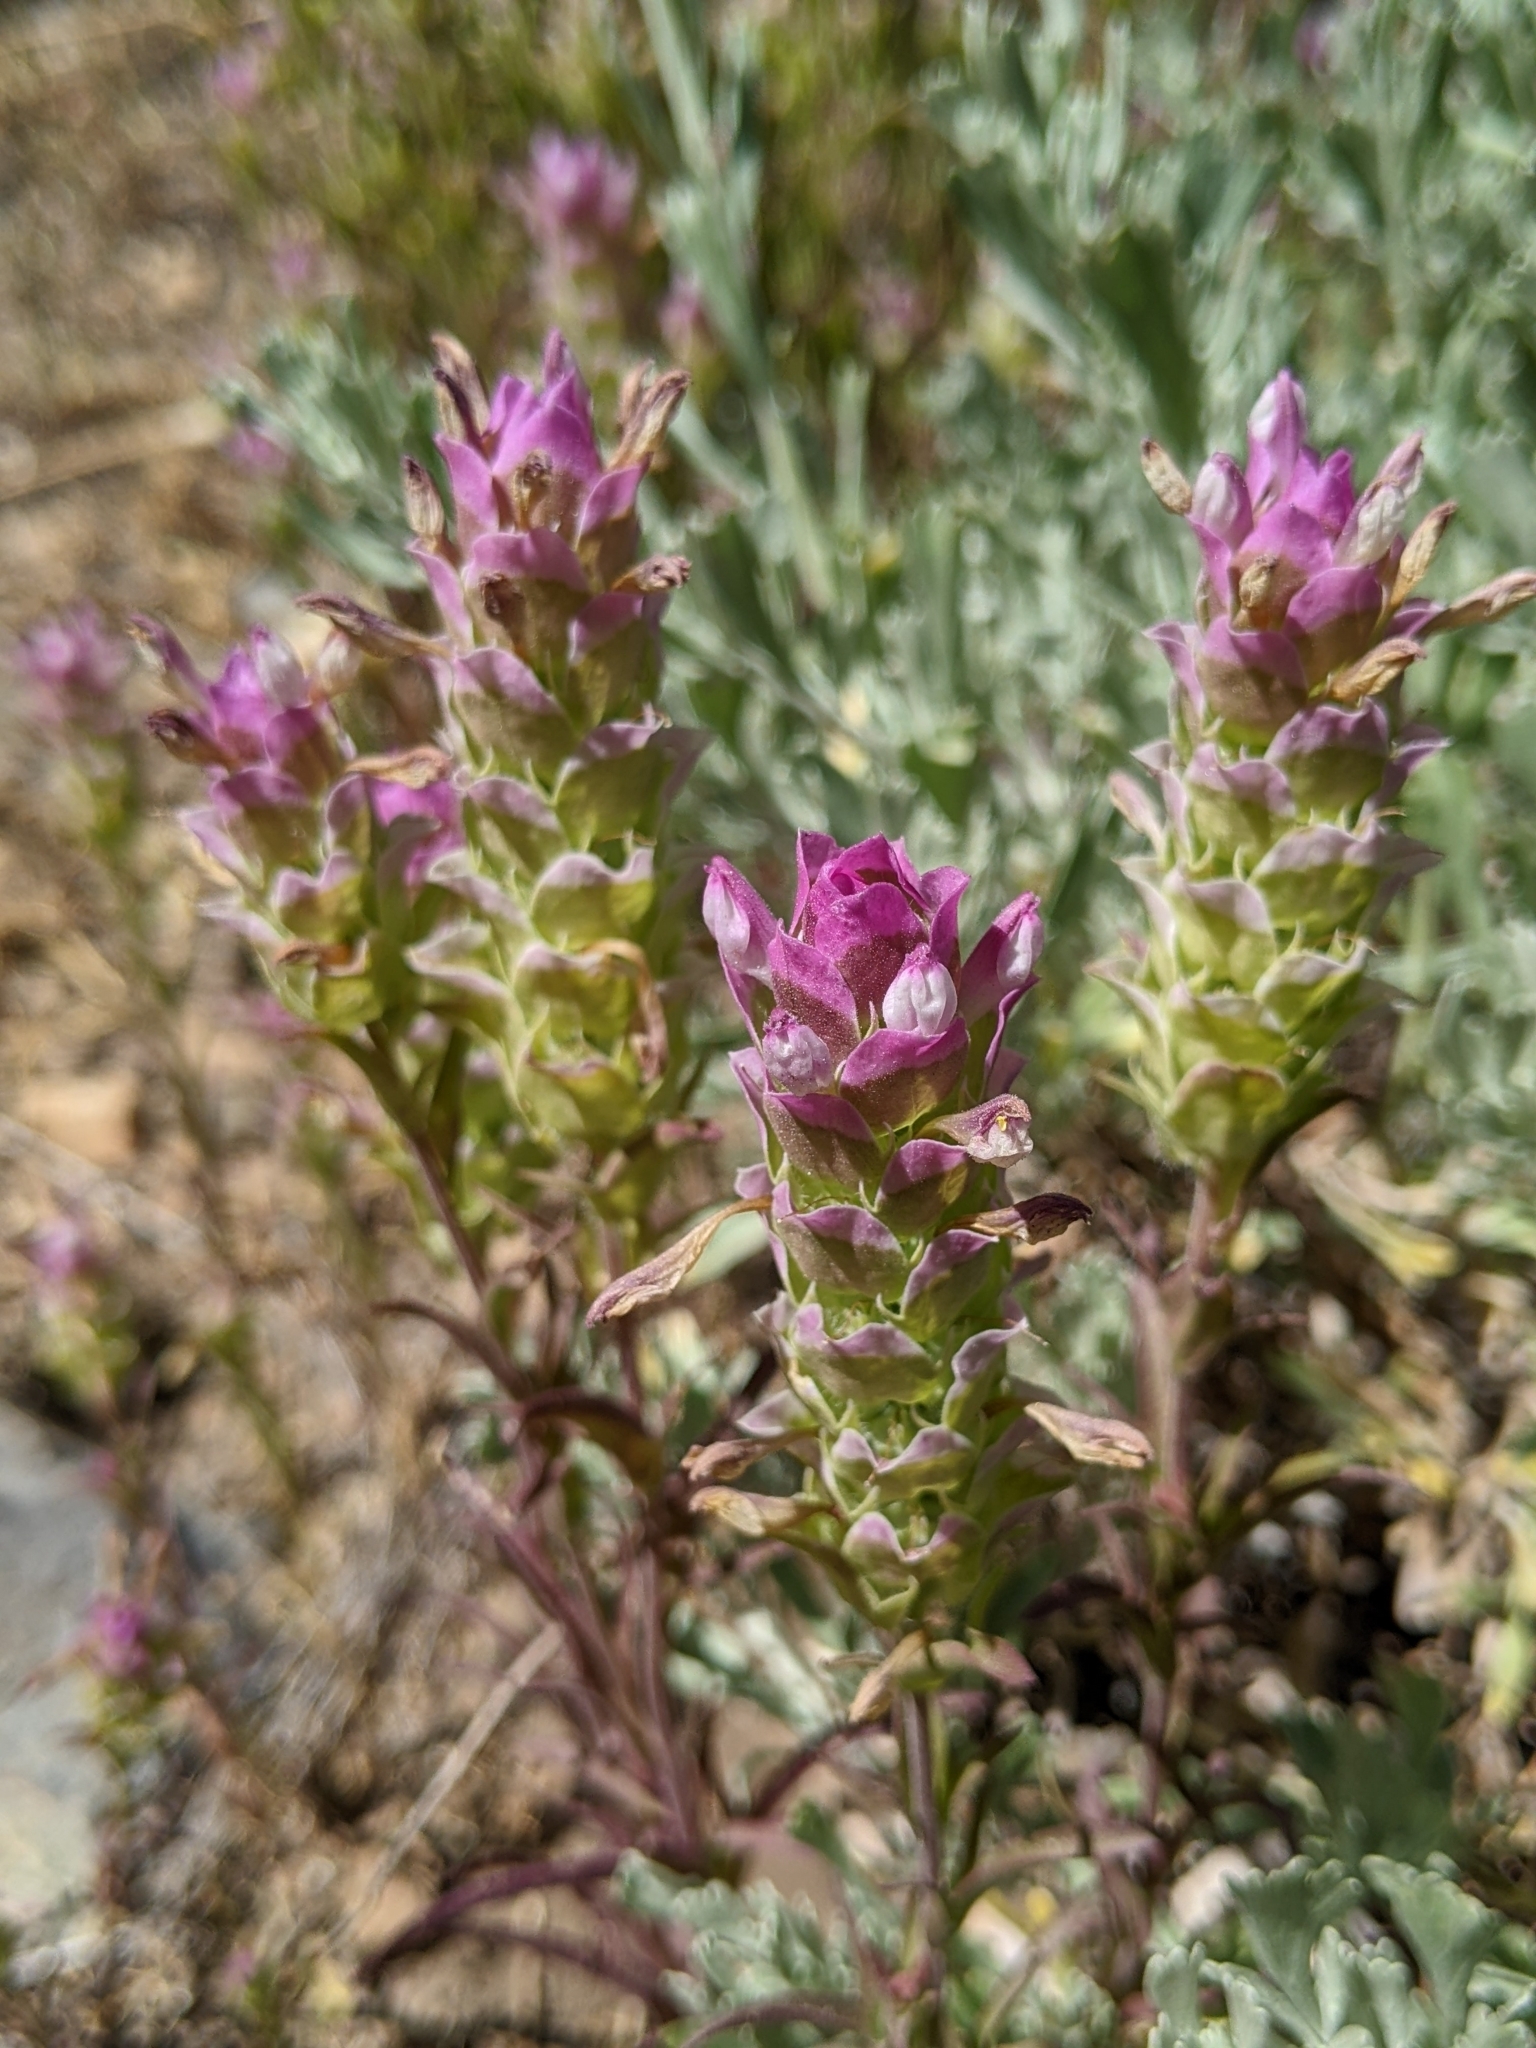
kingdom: Plantae
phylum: Tracheophyta
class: Magnoliopsida
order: Lamiales
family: Orobanchaceae
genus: Orthocarpus
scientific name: Orthocarpus cuspidatus
